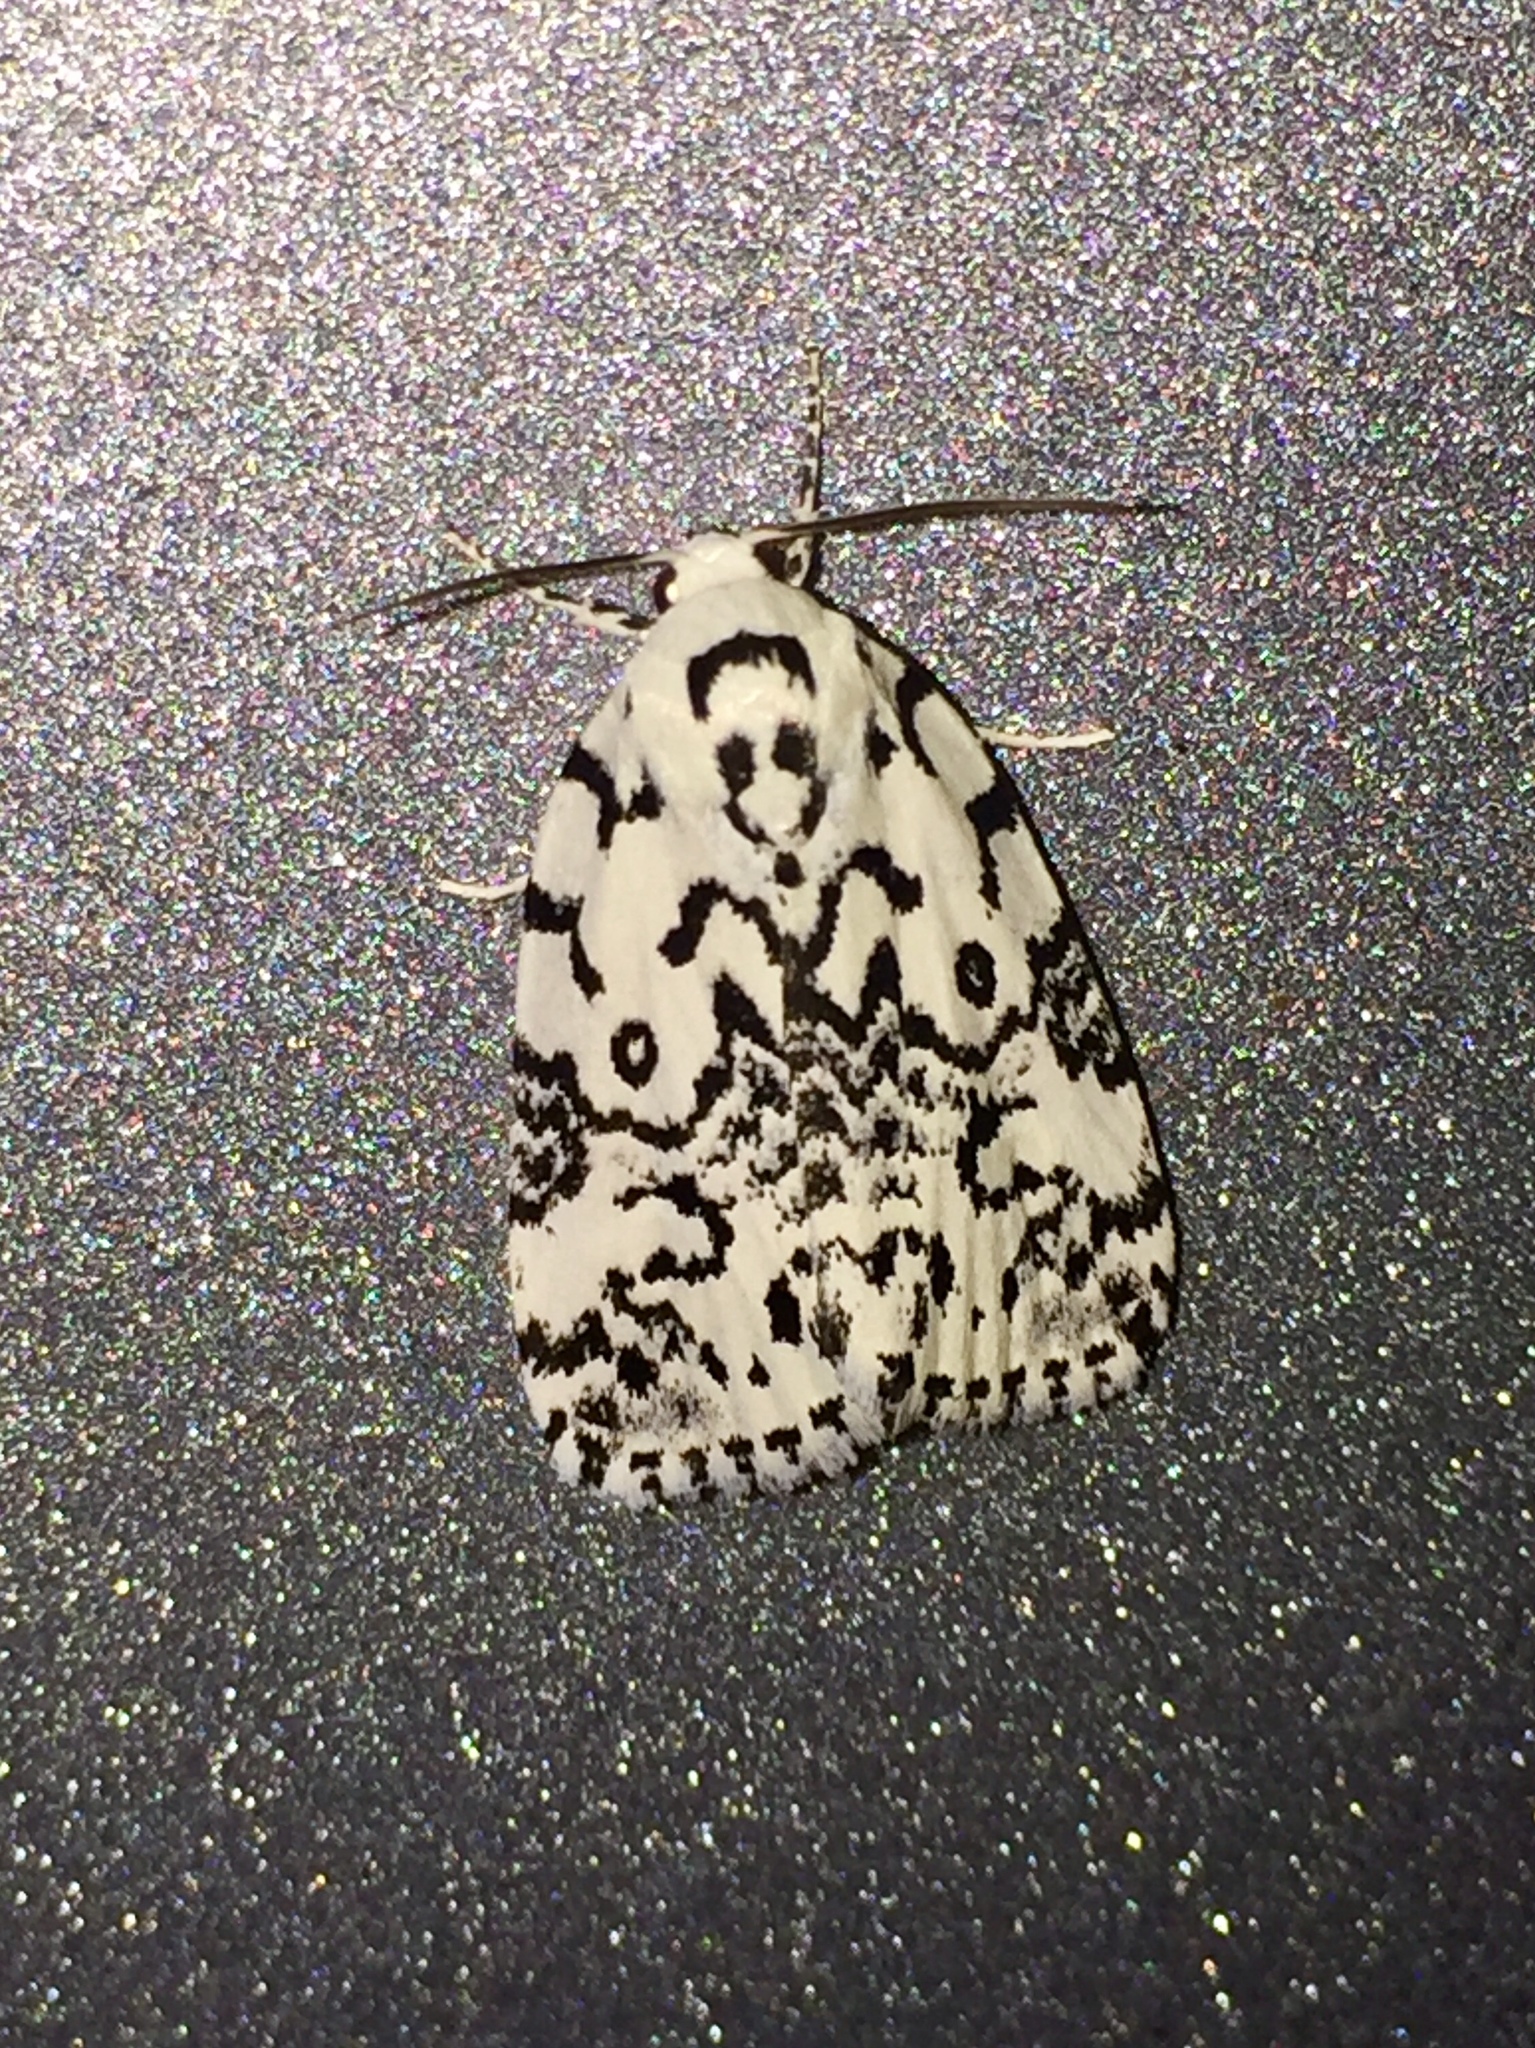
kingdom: Animalia
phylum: Arthropoda
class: Insecta
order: Lepidoptera
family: Noctuidae
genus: Polygrammate
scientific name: Polygrammate hebraeicum
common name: Hebrew moth
